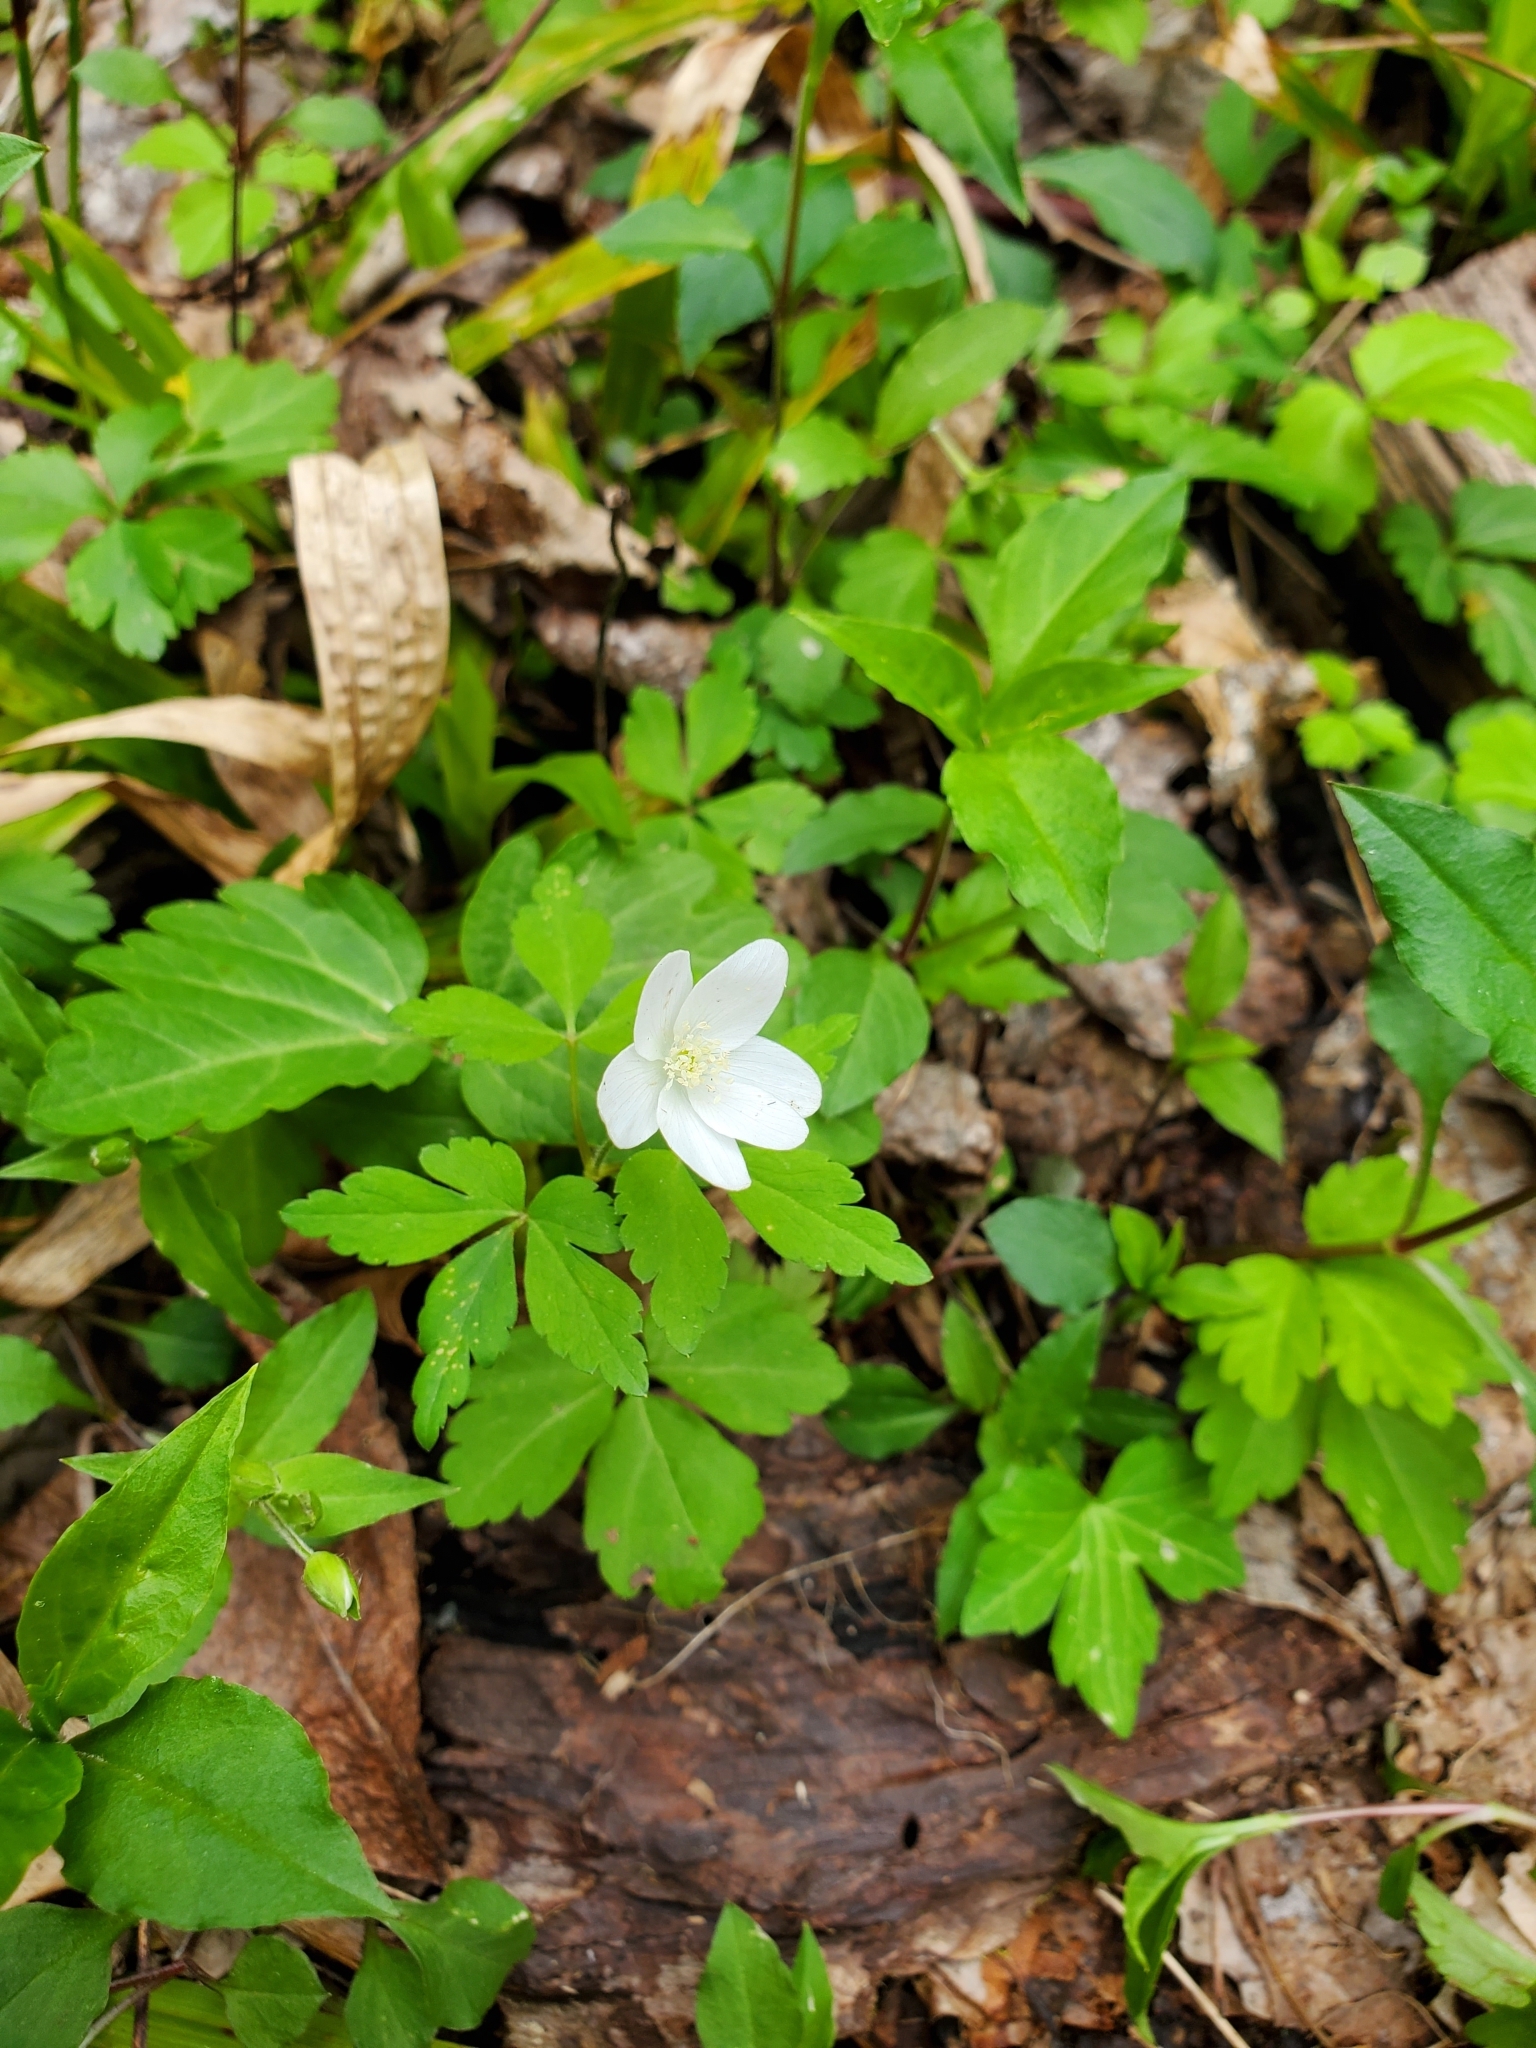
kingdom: Plantae
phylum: Tracheophyta
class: Magnoliopsida
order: Ranunculales
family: Ranunculaceae
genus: Anemone
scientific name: Anemone quinquefolia
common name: Wood anemone
